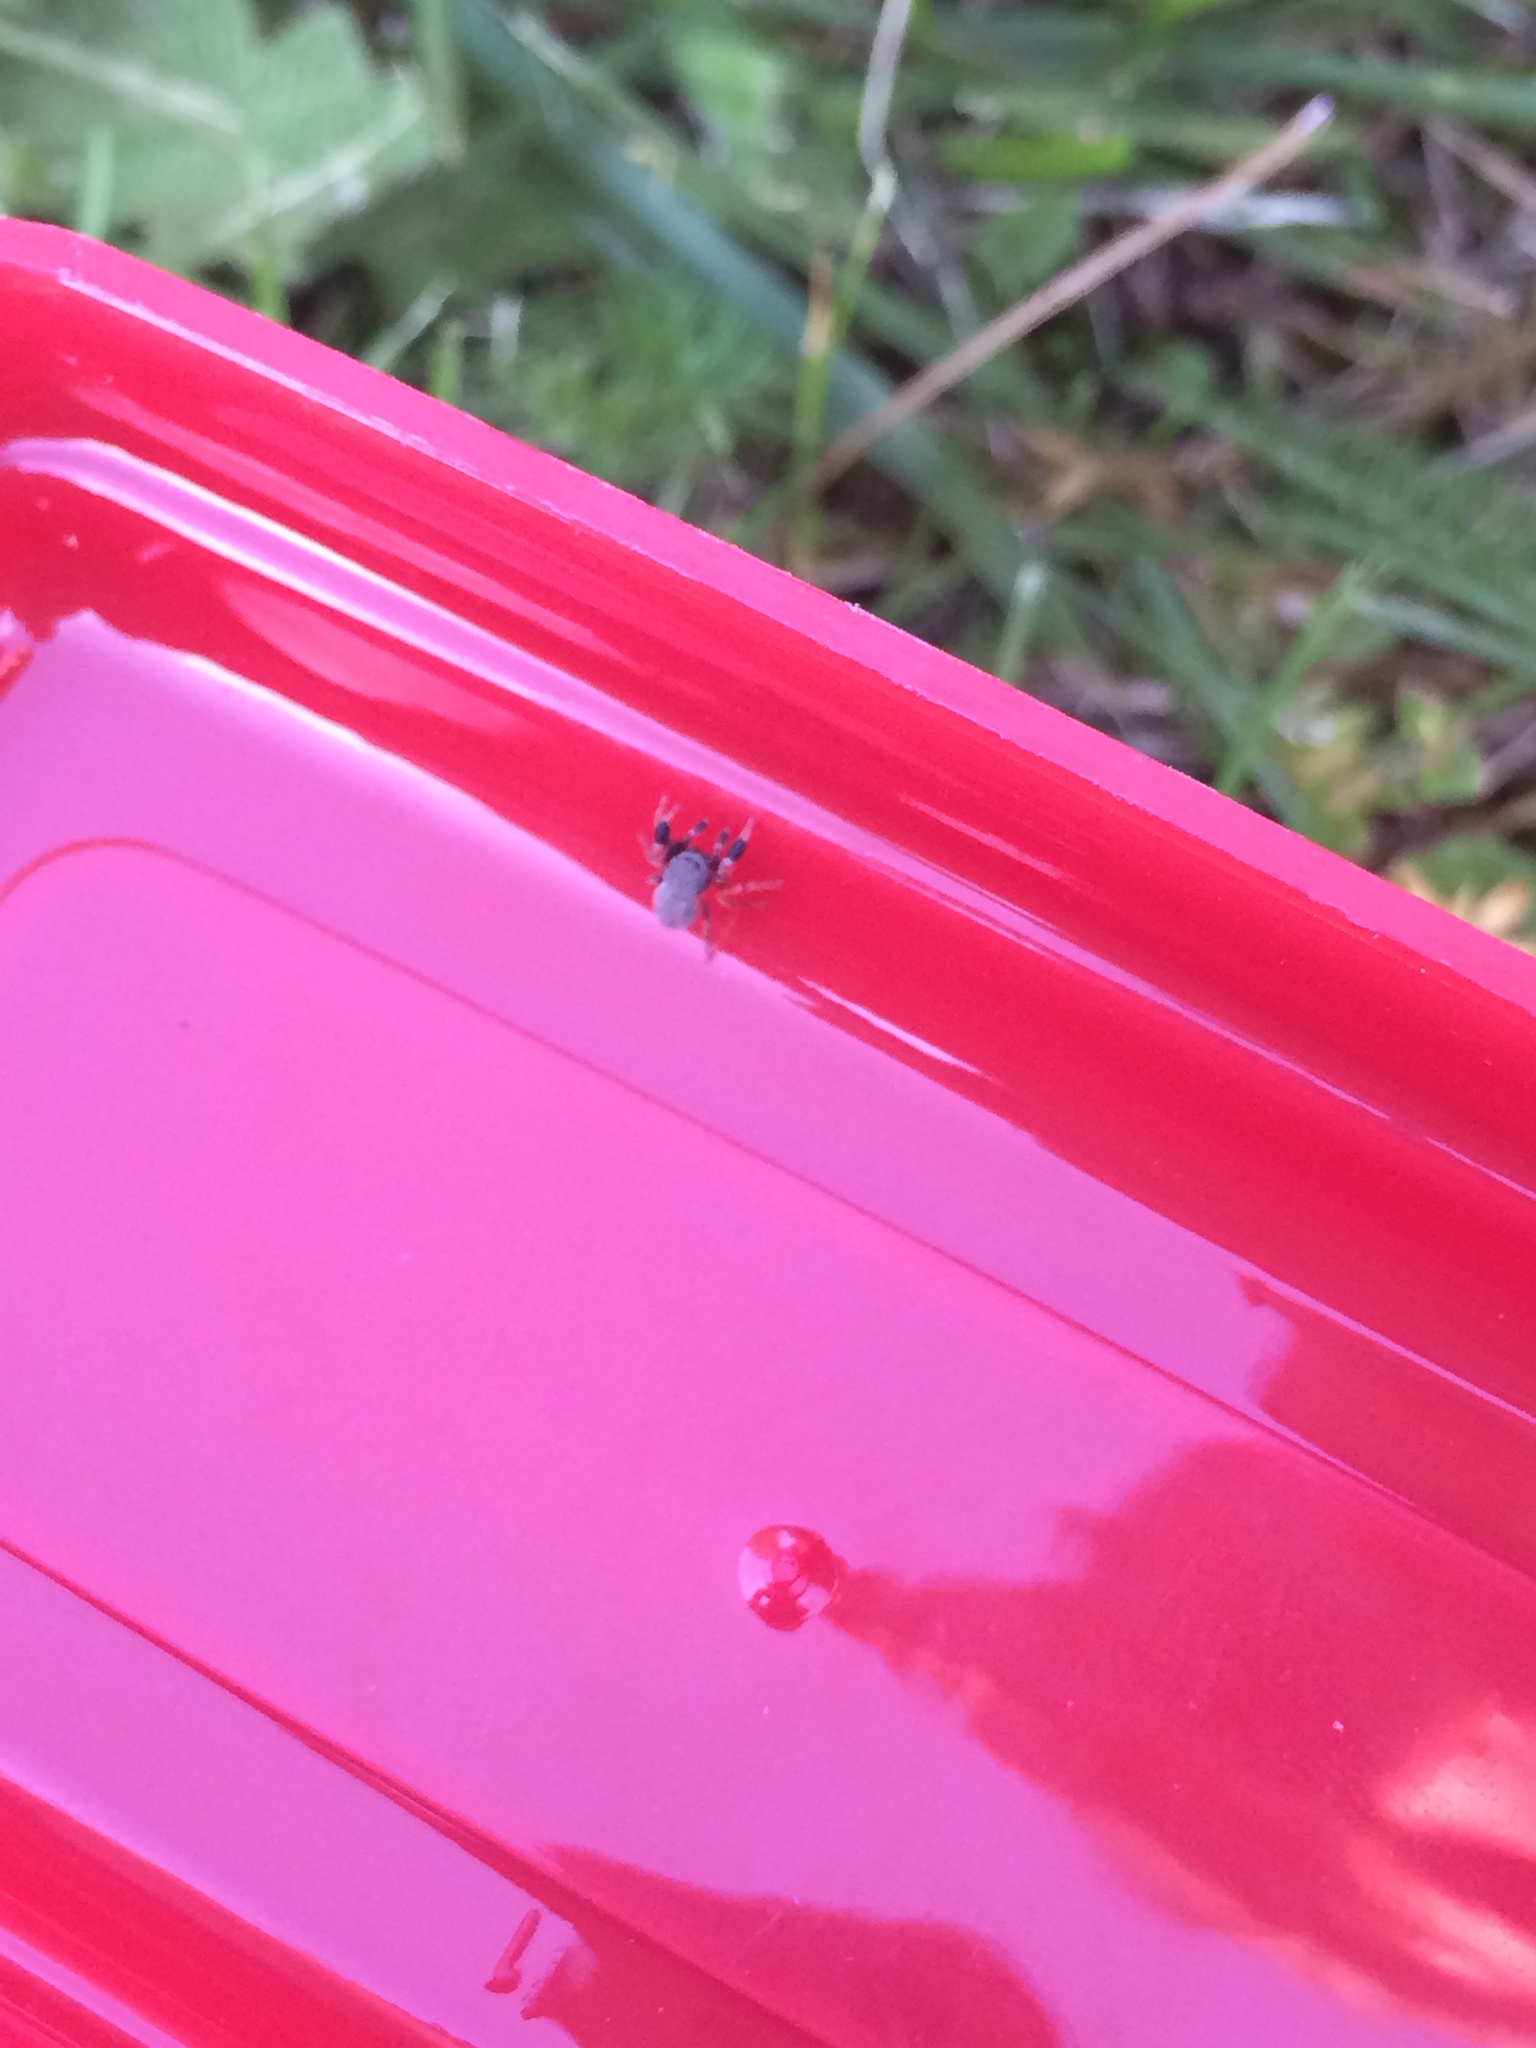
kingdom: Animalia
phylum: Arthropoda
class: Arachnida
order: Araneae
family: Salticidae
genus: Ballus
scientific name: Ballus rufipes
